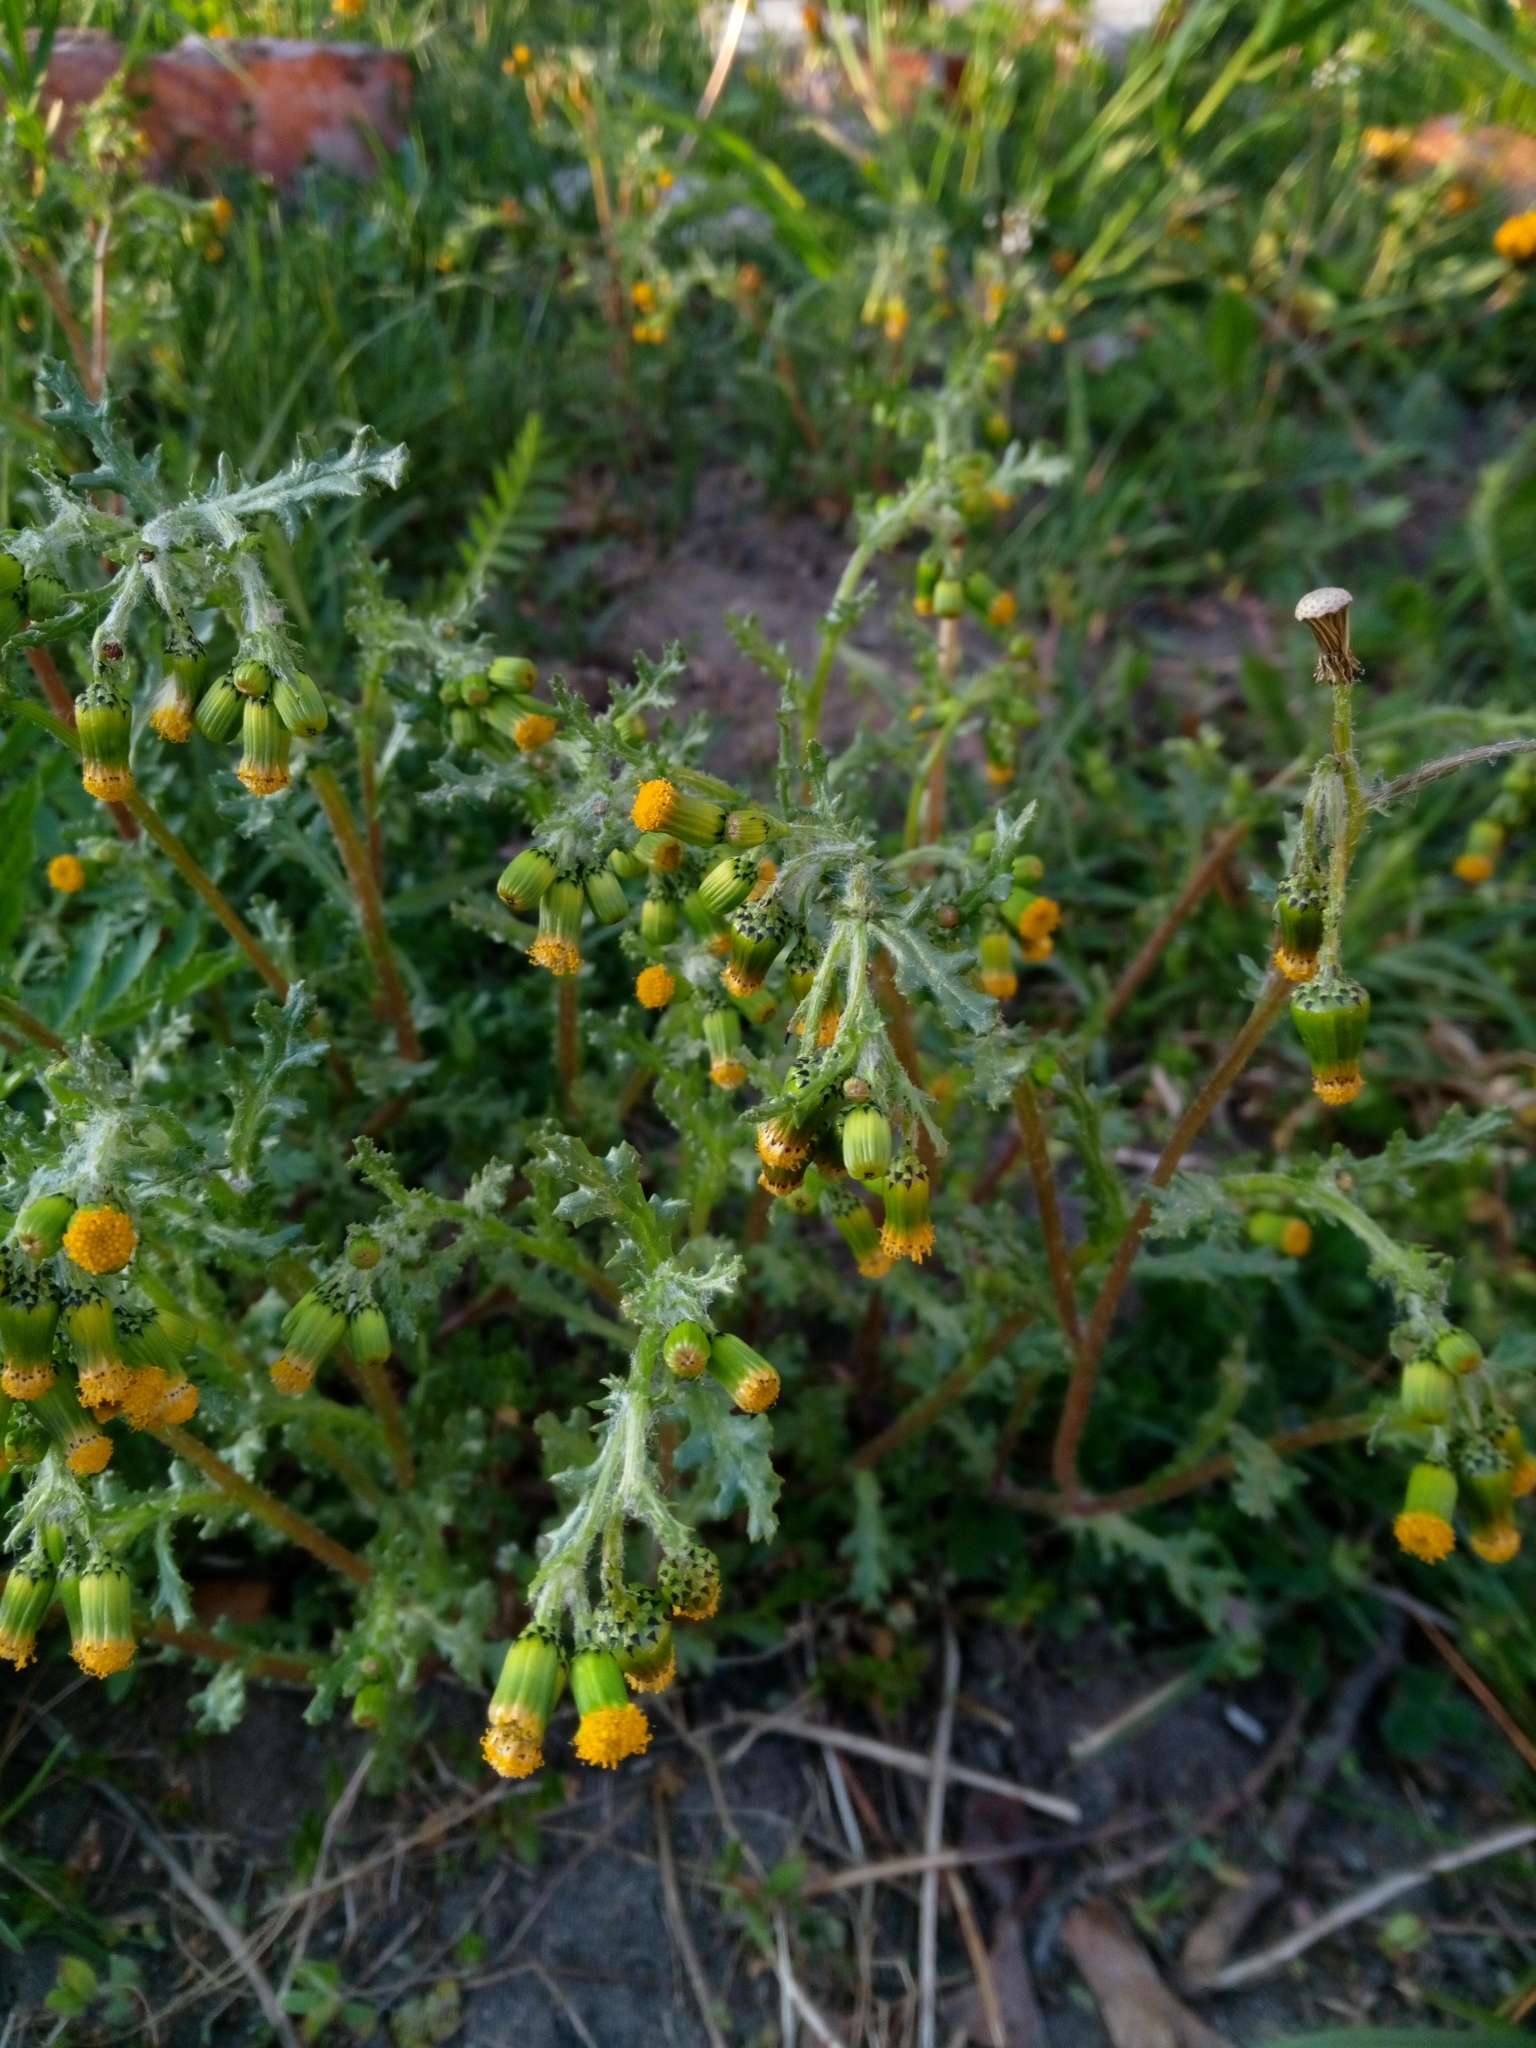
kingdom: Plantae
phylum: Tracheophyta
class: Magnoliopsida
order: Asterales
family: Asteraceae
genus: Senecio
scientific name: Senecio vulgaris
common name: Old-man-in-the-spring
